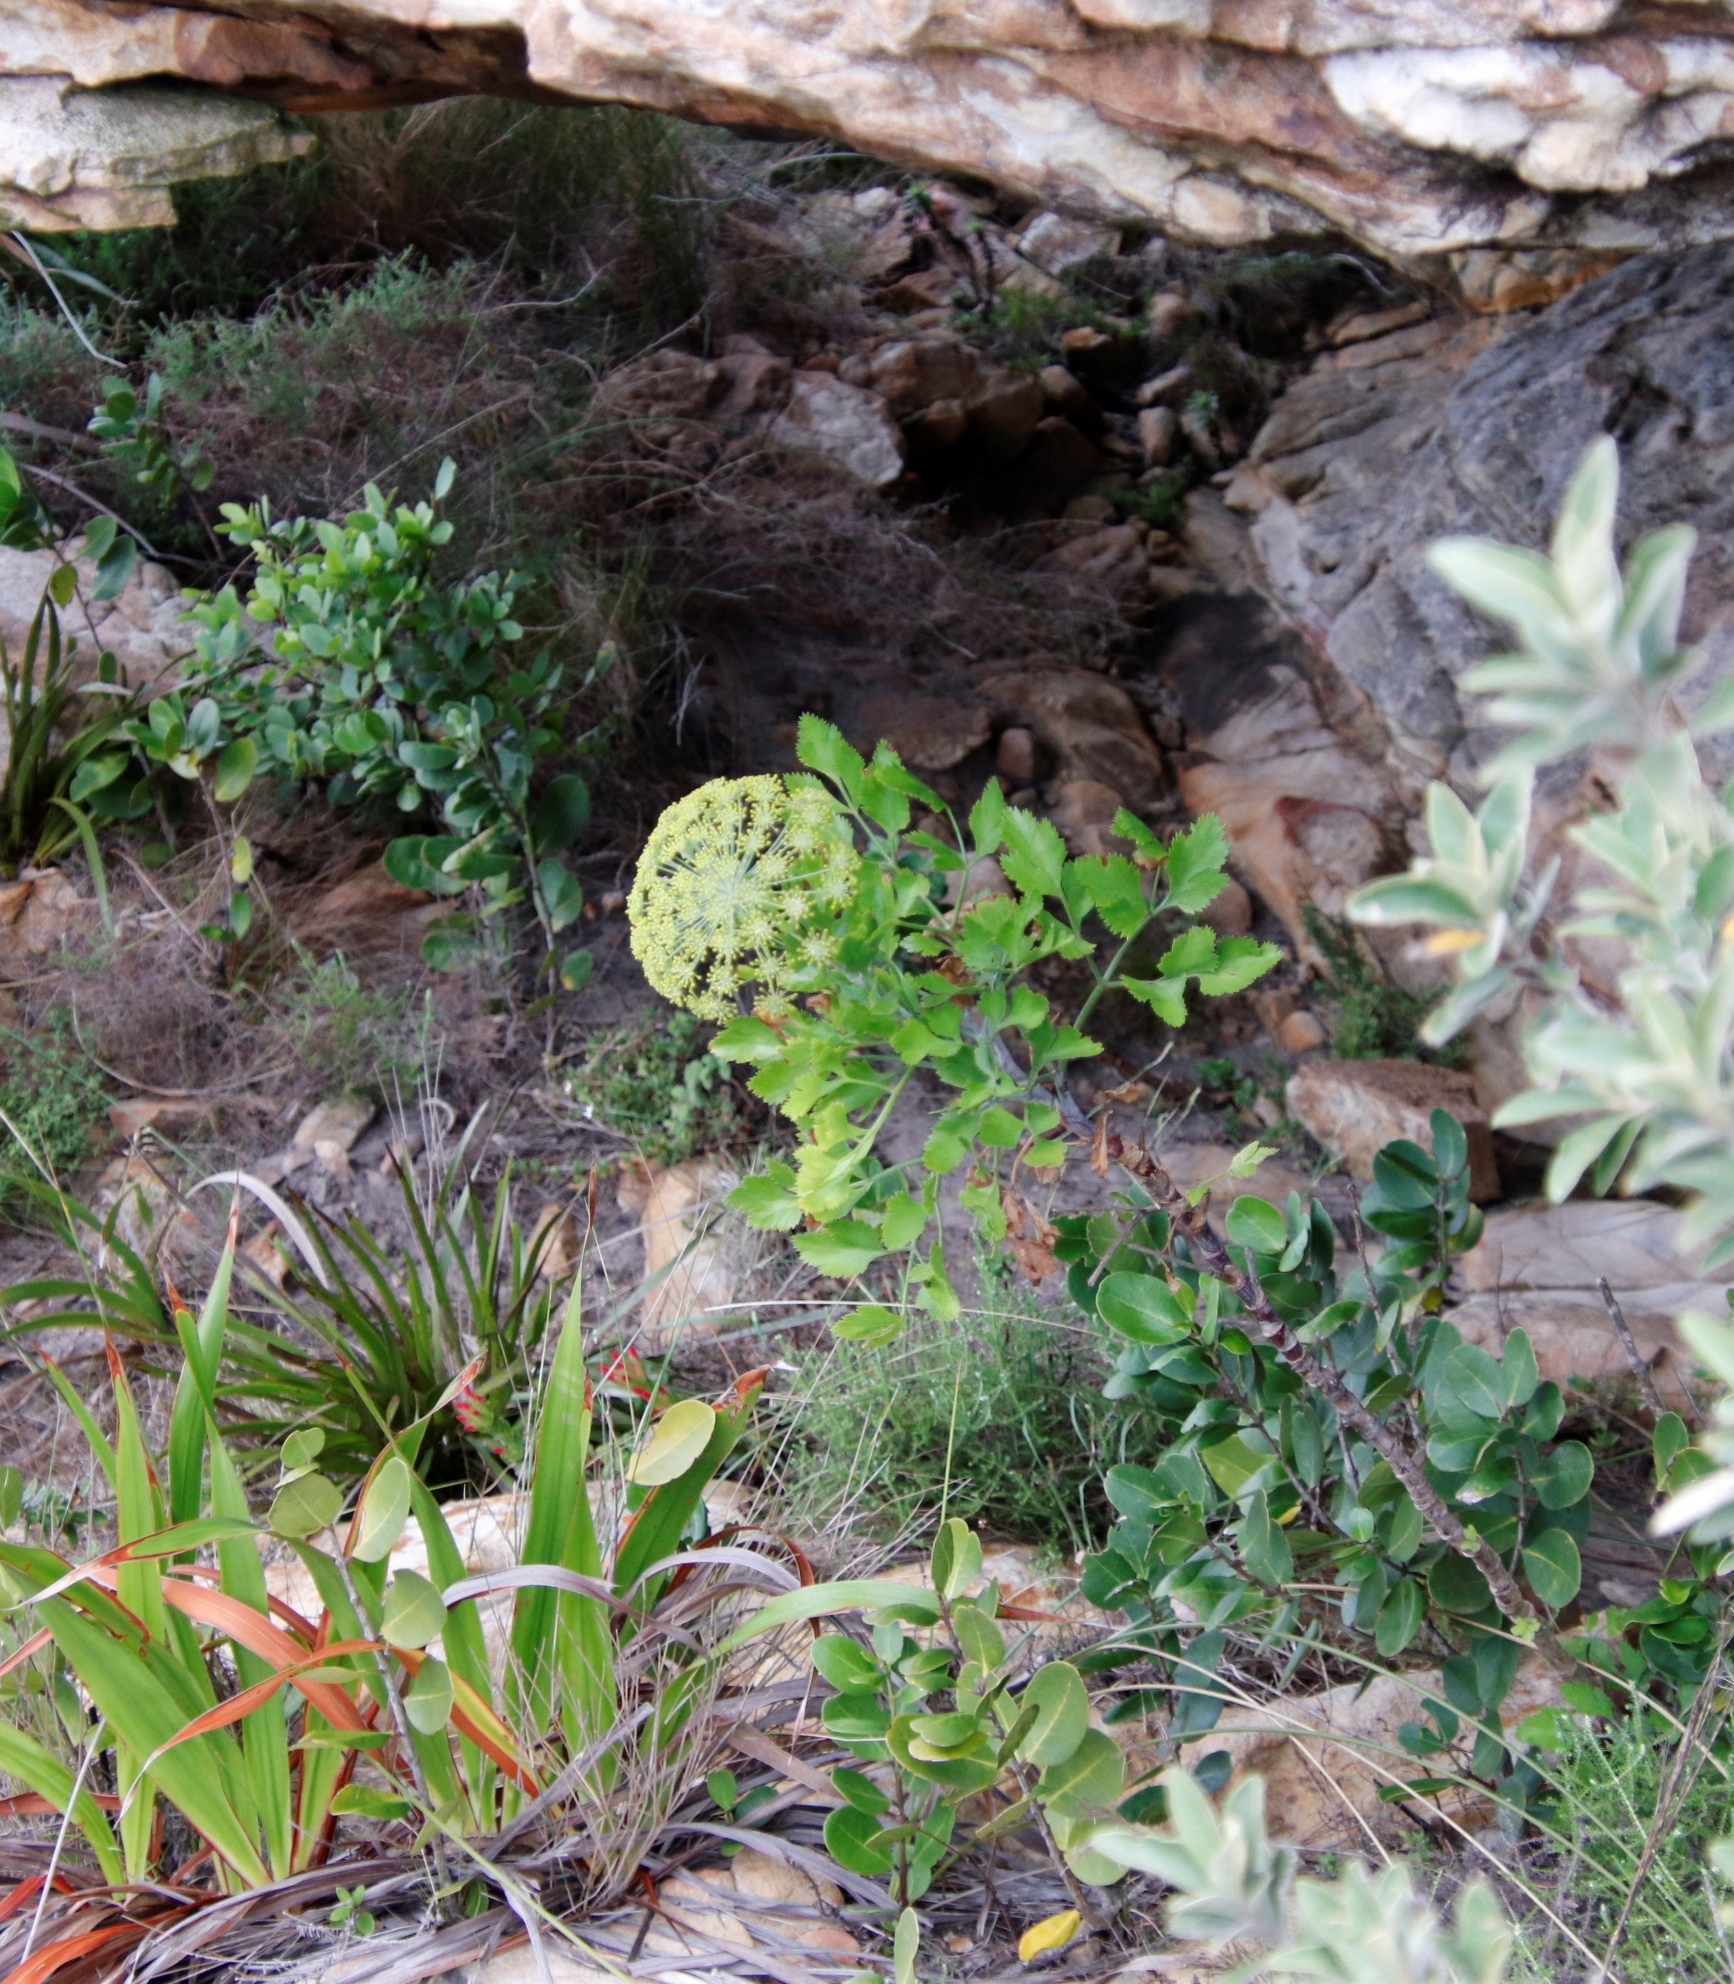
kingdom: Plantae
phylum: Tracheophyta
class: Magnoliopsida
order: Apiales
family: Apiaceae
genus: Notobubon
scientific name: Notobubon galbanum
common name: Blisterbush
